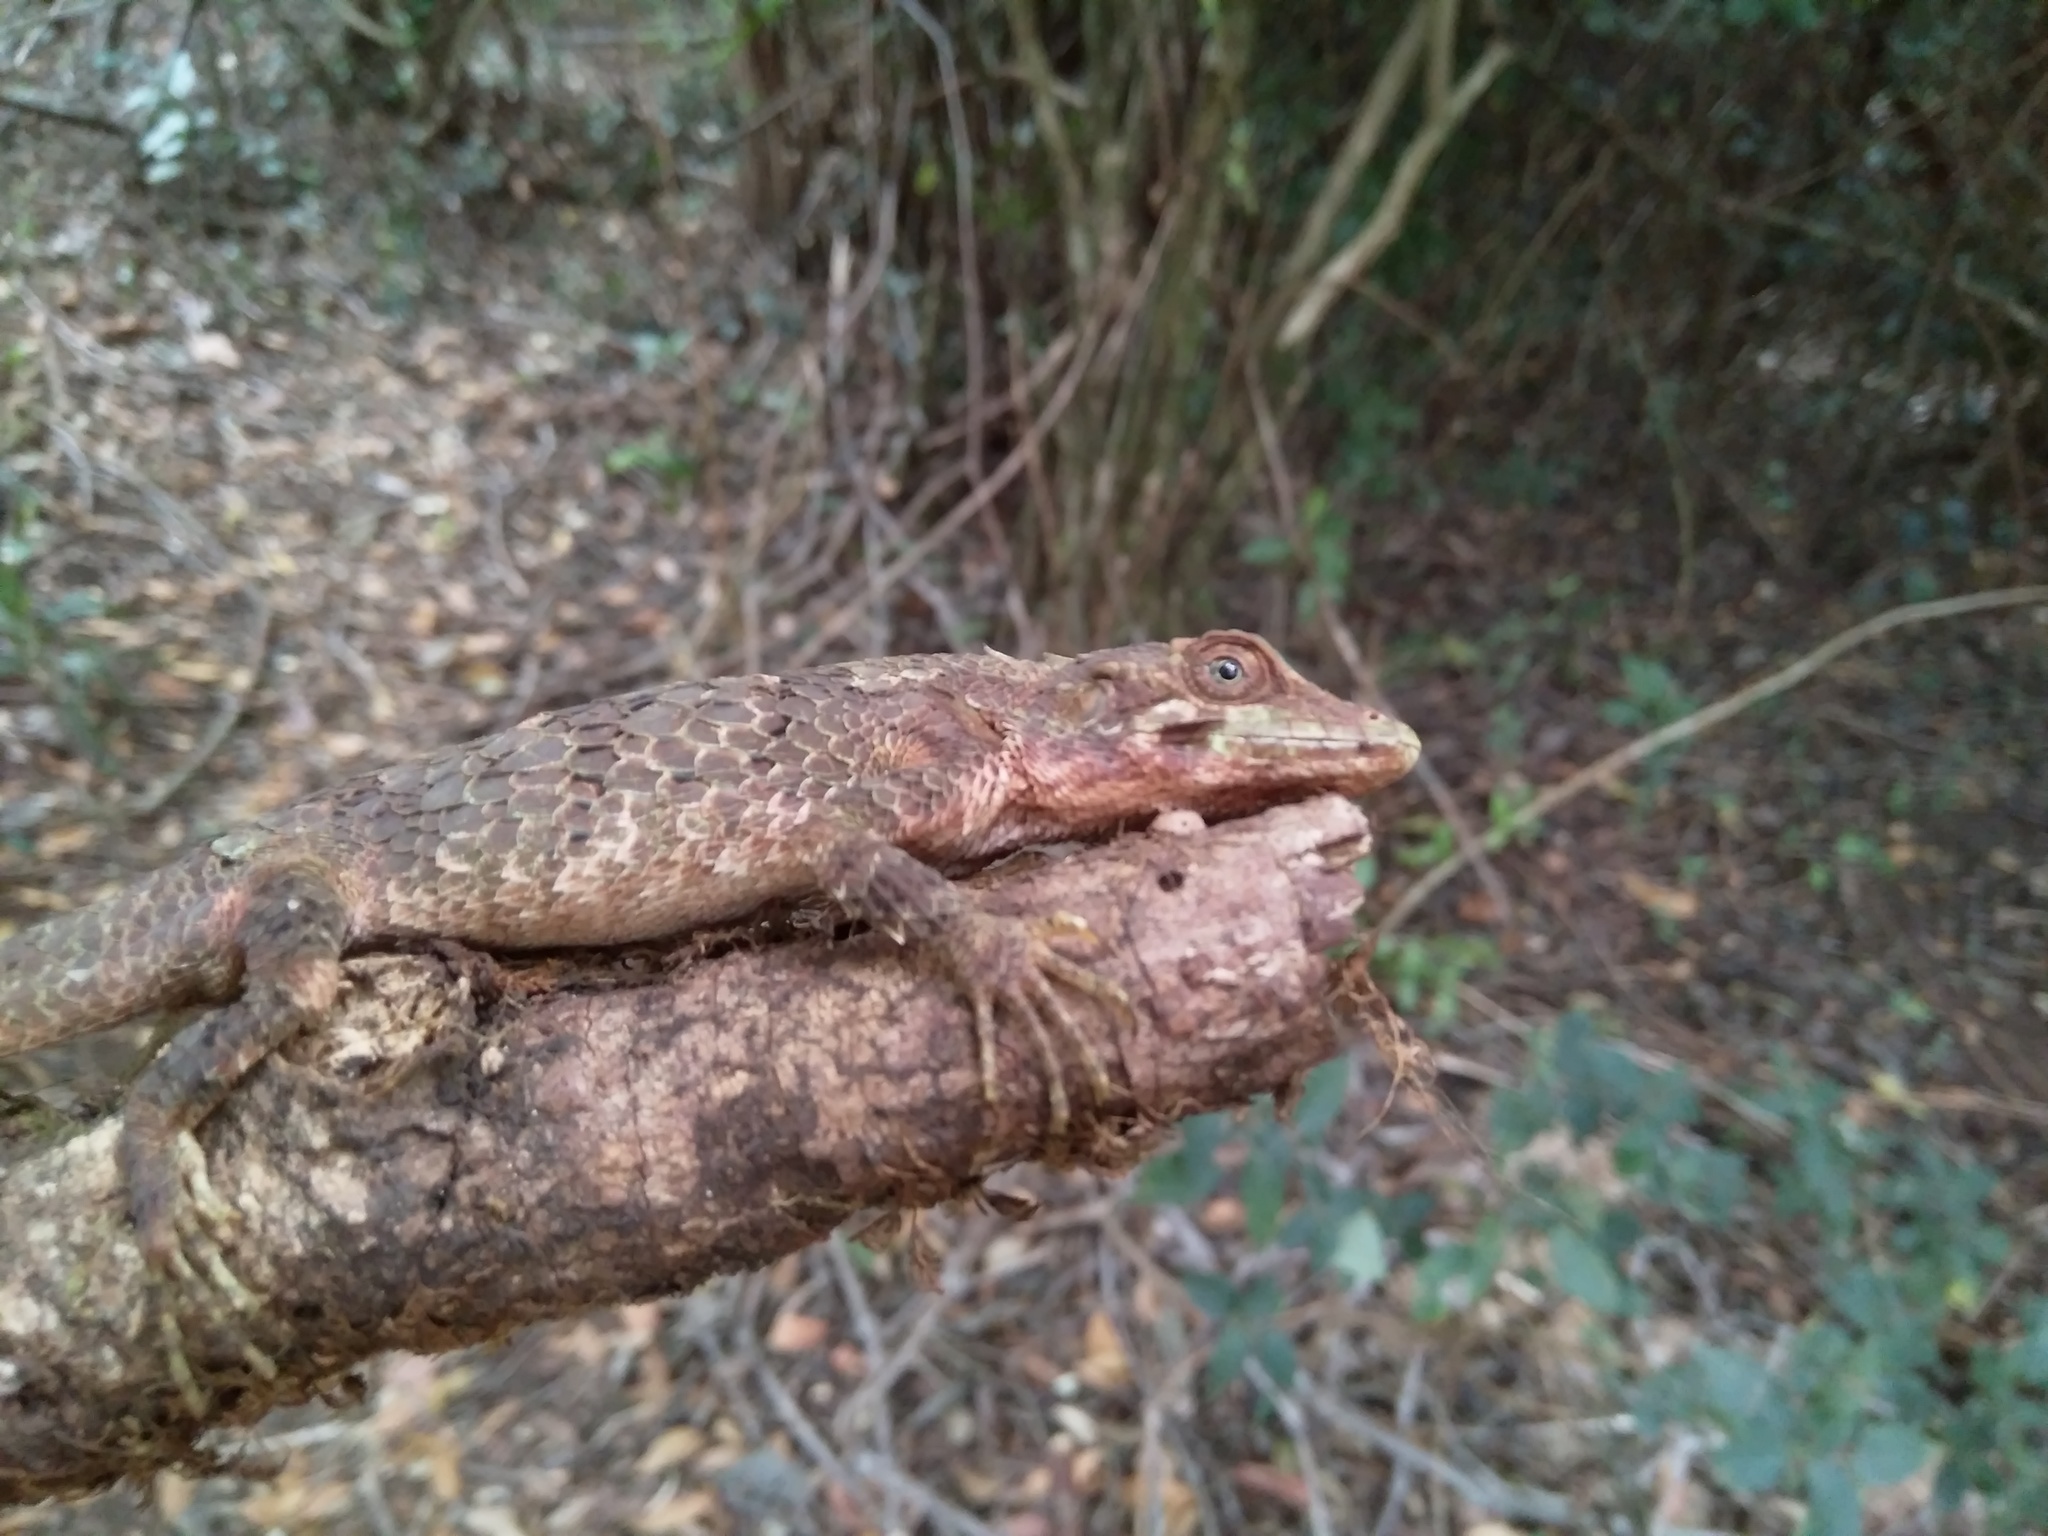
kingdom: Animalia
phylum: Chordata
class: Squamata
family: Agamidae
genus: Salea
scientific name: Salea anamallayana
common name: Anaimalai spiny lizard
